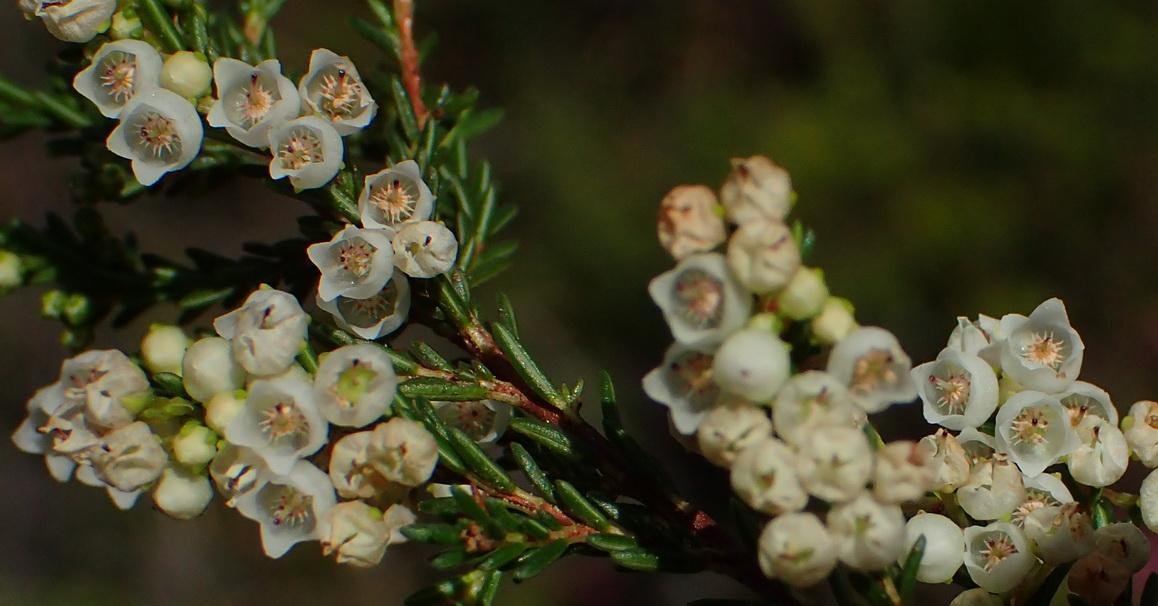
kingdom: Plantae
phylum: Tracheophyta
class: Magnoliopsida
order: Ericales
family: Ericaceae
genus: Erica
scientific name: Erica tenuis
